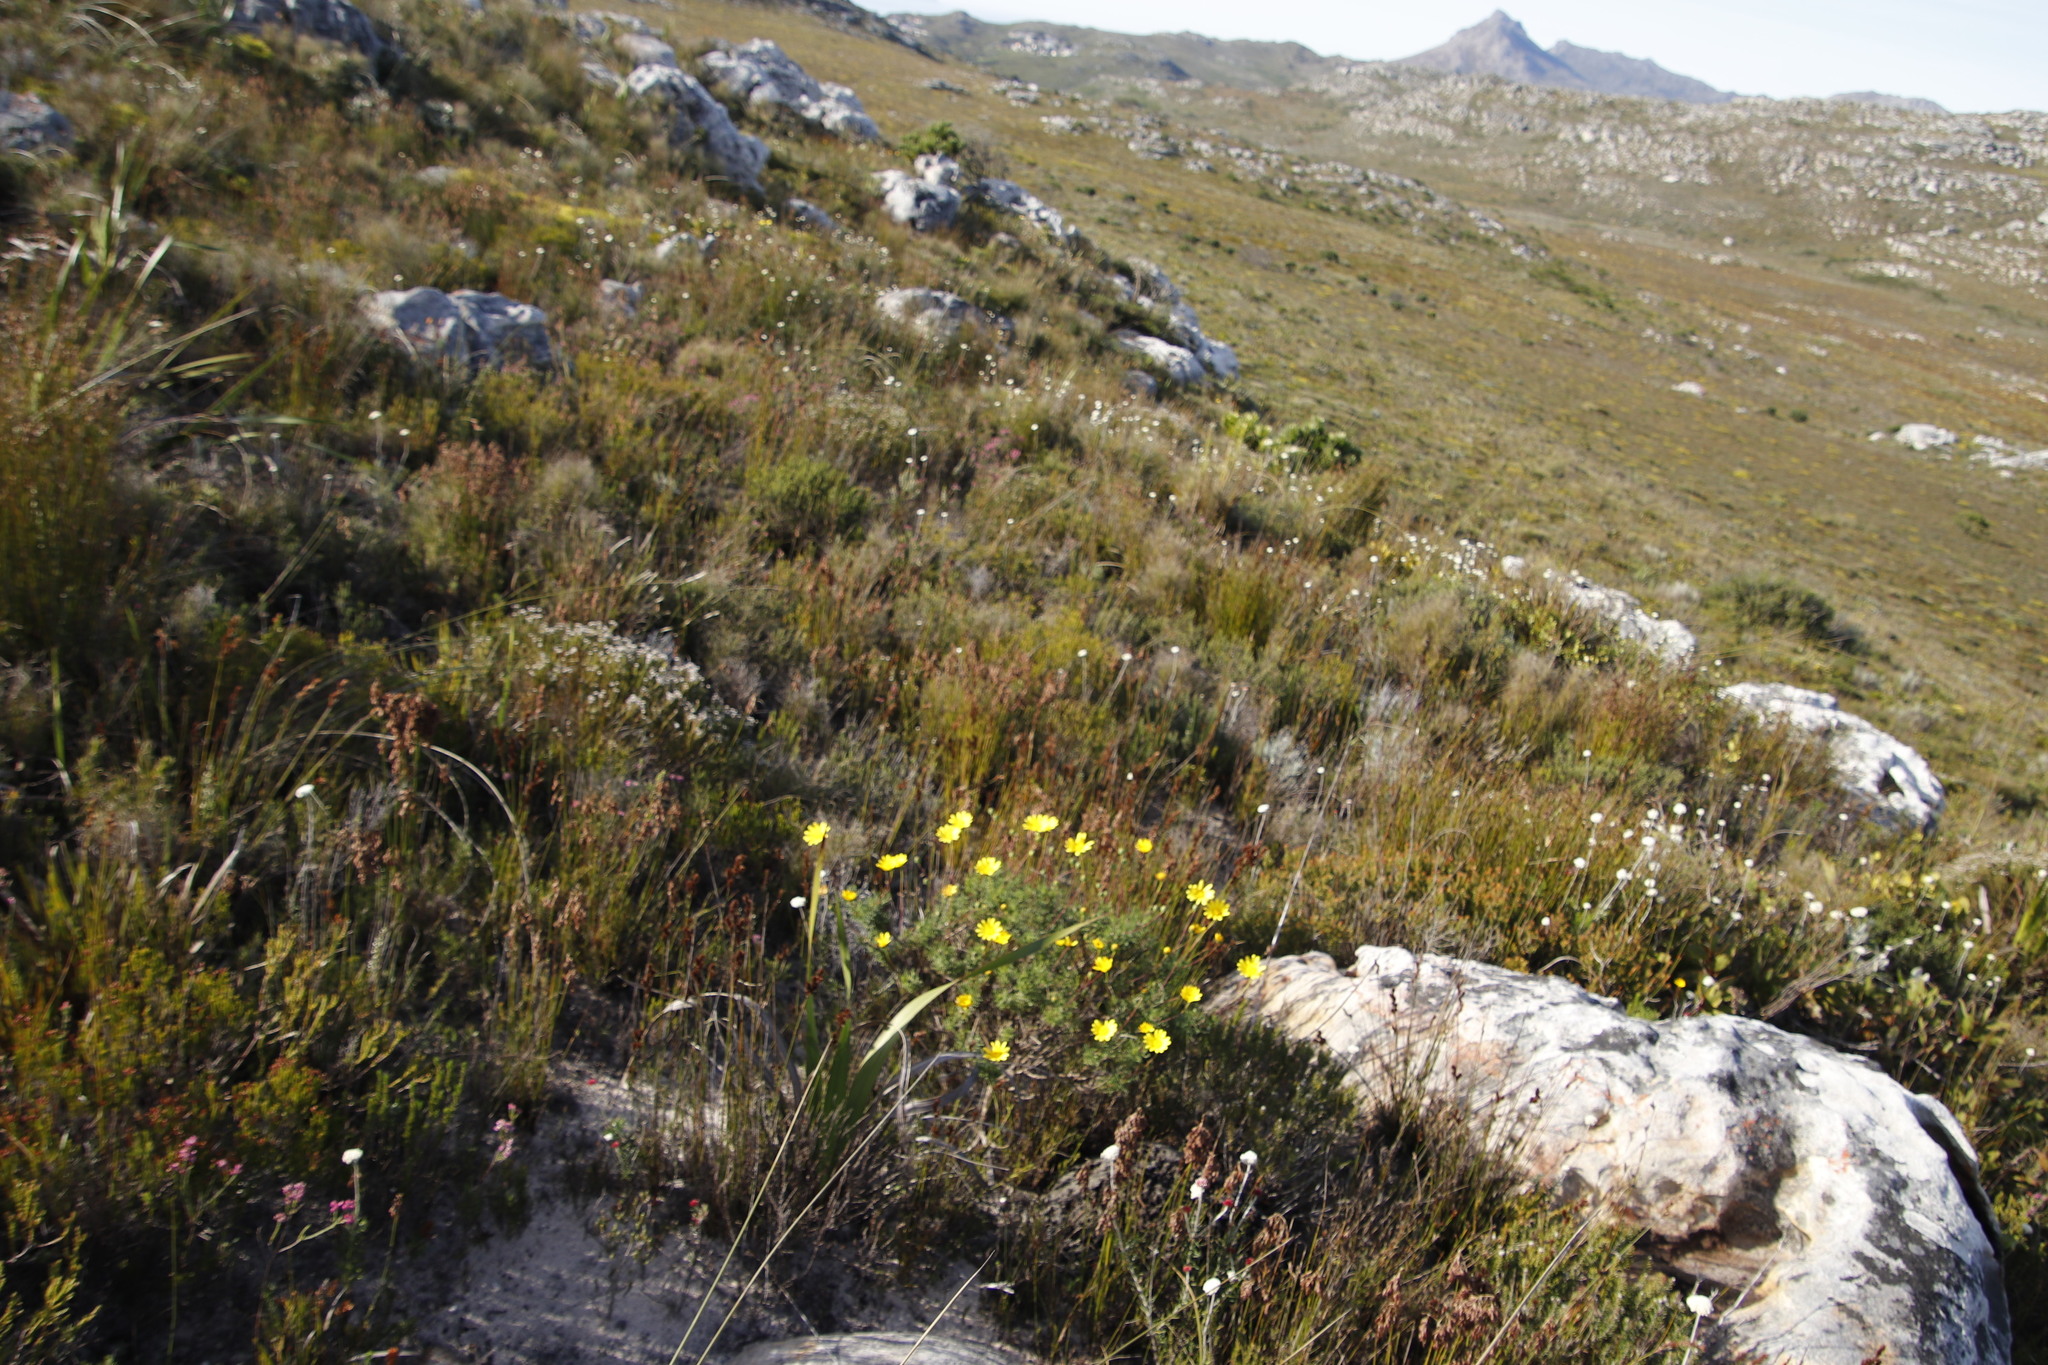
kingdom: Plantae
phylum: Tracheophyta
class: Magnoliopsida
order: Asterales
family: Asteraceae
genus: Euryops
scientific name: Euryops abrotanifolius
